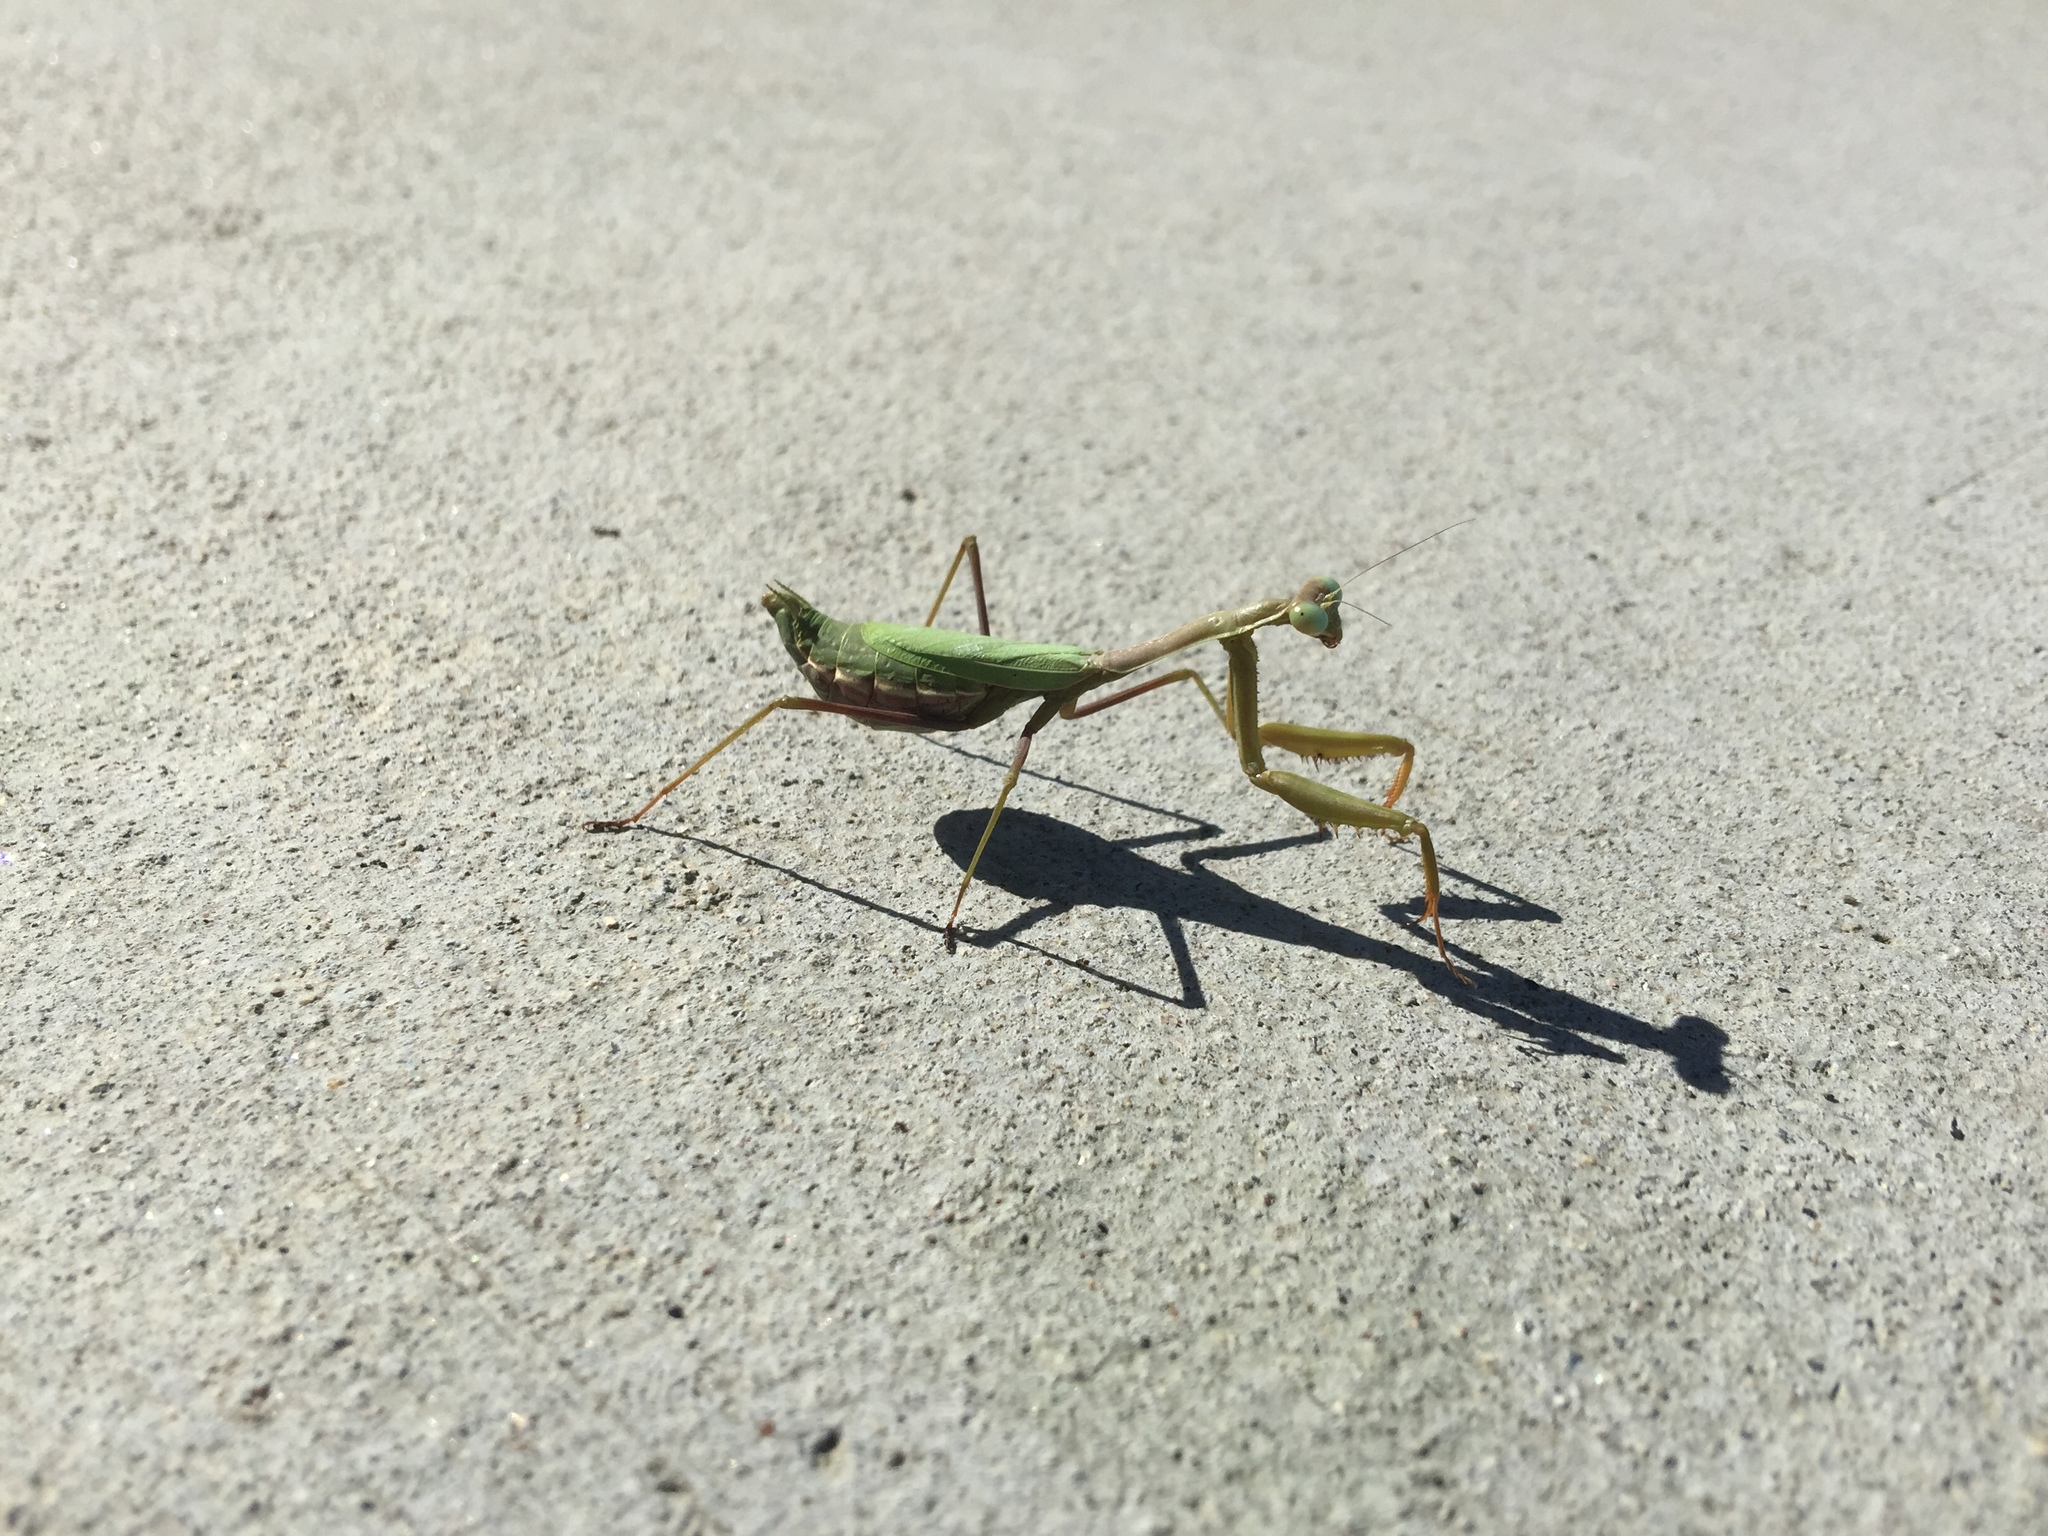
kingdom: Animalia
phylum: Arthropoda
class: Insecta
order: Mantodea
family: Mantidae
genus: Stagmomantis
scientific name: Stagmomantis californica
